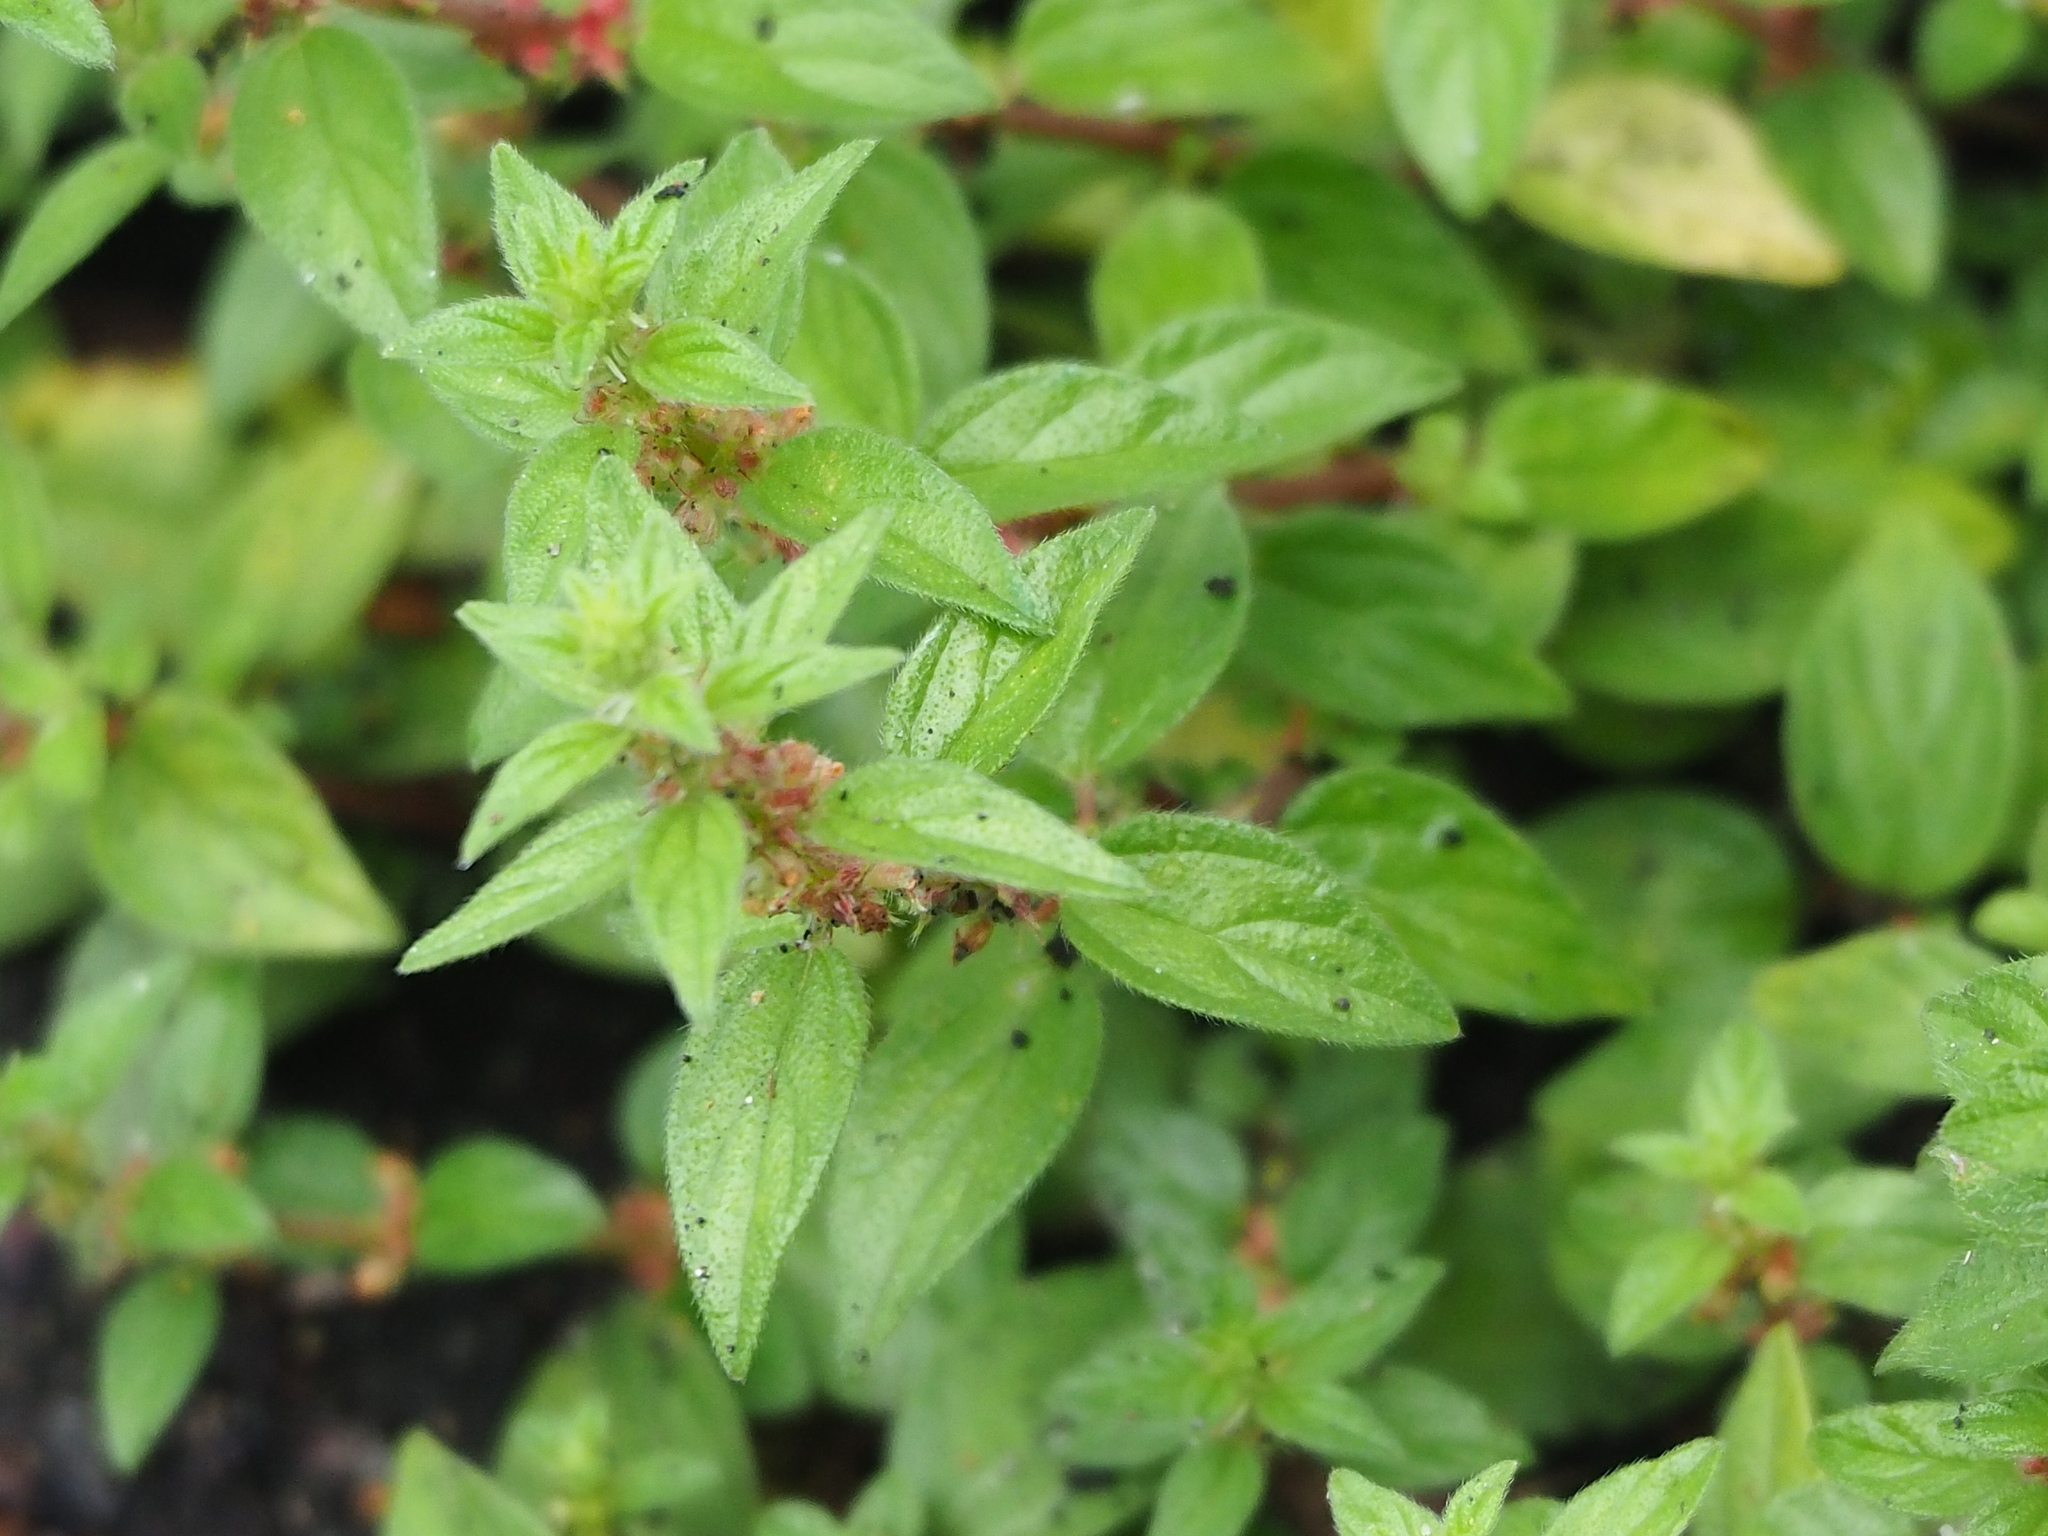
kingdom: Plantae
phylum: Tracheophyta
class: Magnoliopsida
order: Rosales
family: Urticaceae
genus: Pouzolzia
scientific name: Pouzolzia zeylanica
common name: Graceful pouzolzsbush
